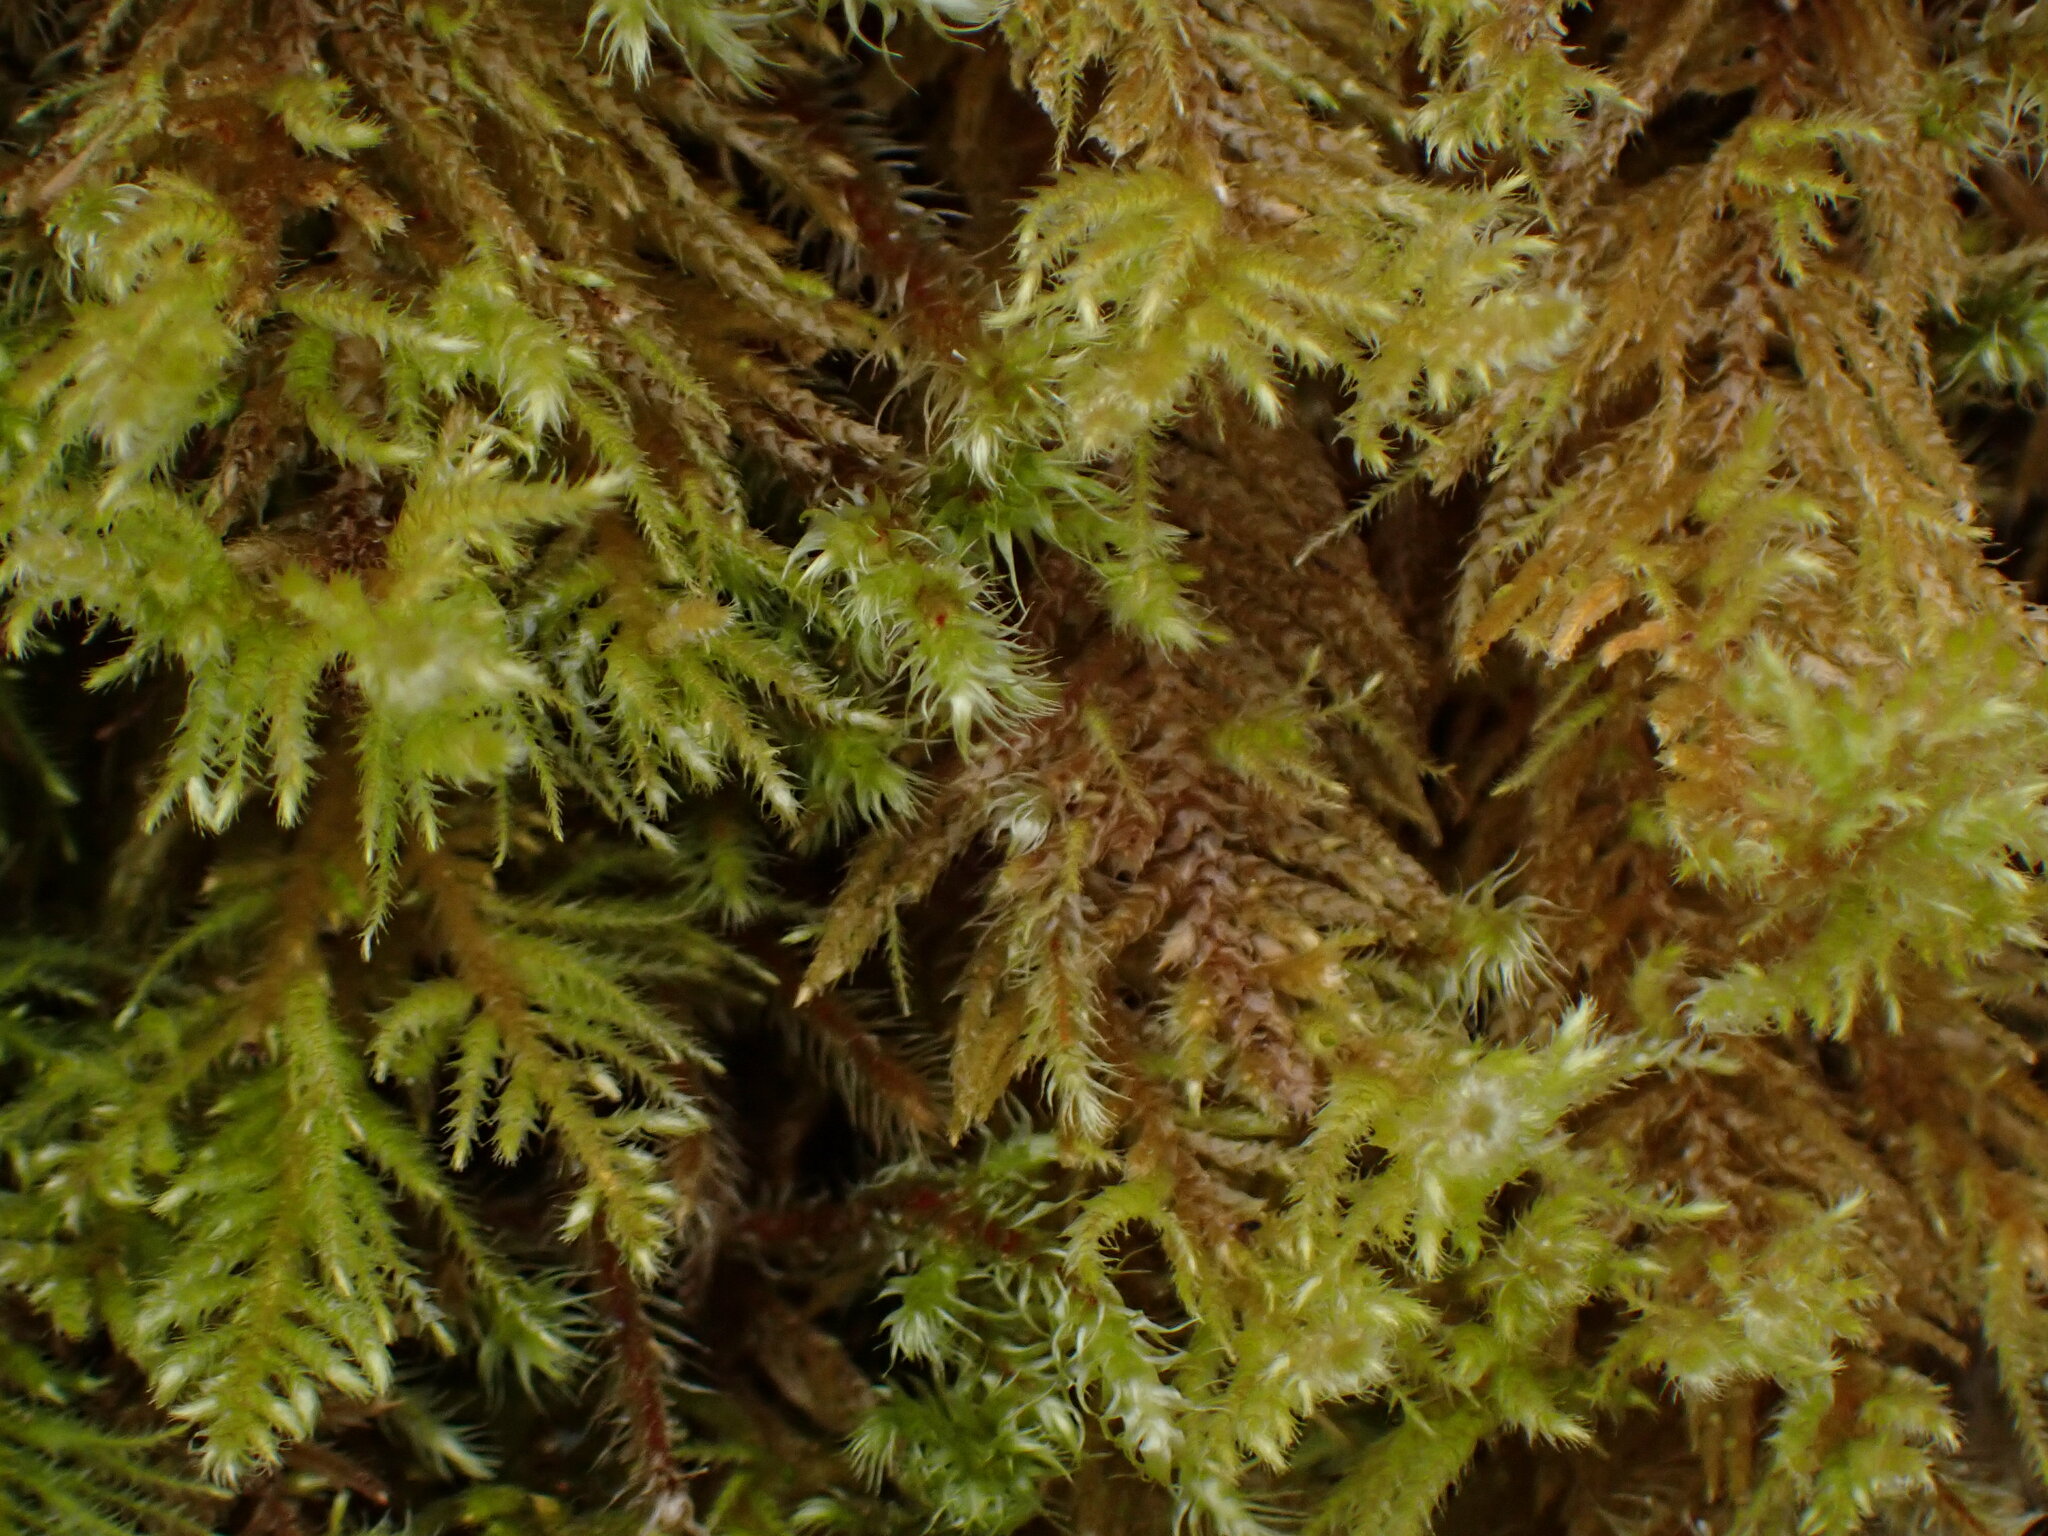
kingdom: Plantae
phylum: Bryophyta
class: Bryopsida
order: Hypnales
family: Brachytheciaceae
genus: Kindbergia
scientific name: Kindbergia oregana
